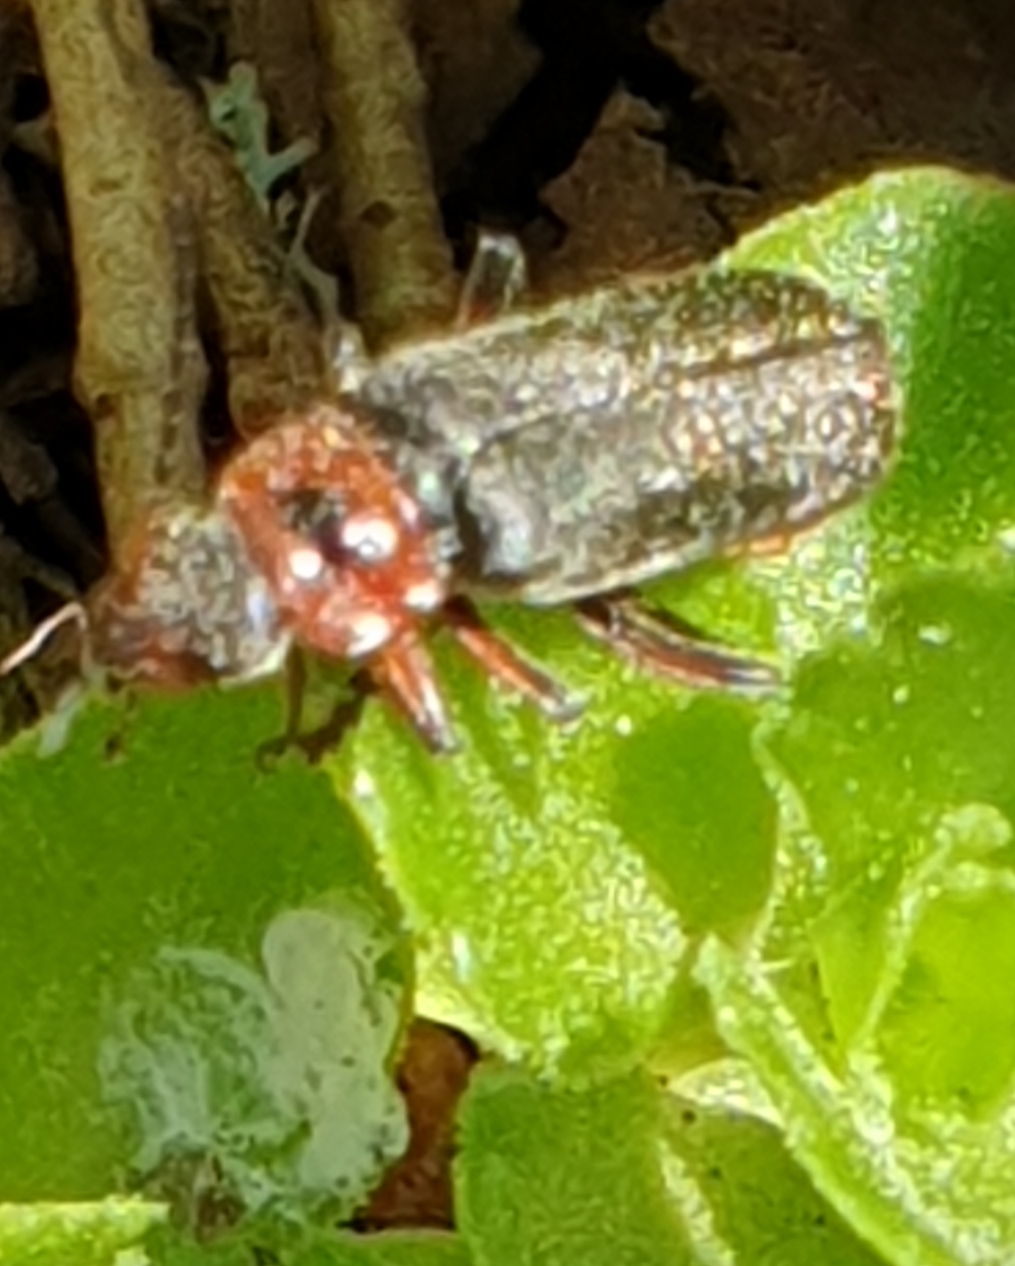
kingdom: Animalia
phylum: Arthropoda
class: Insecta
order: Coleoptera
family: Cantharidae
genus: Cantharis
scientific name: Cantharis rustica
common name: Soldier beetle
